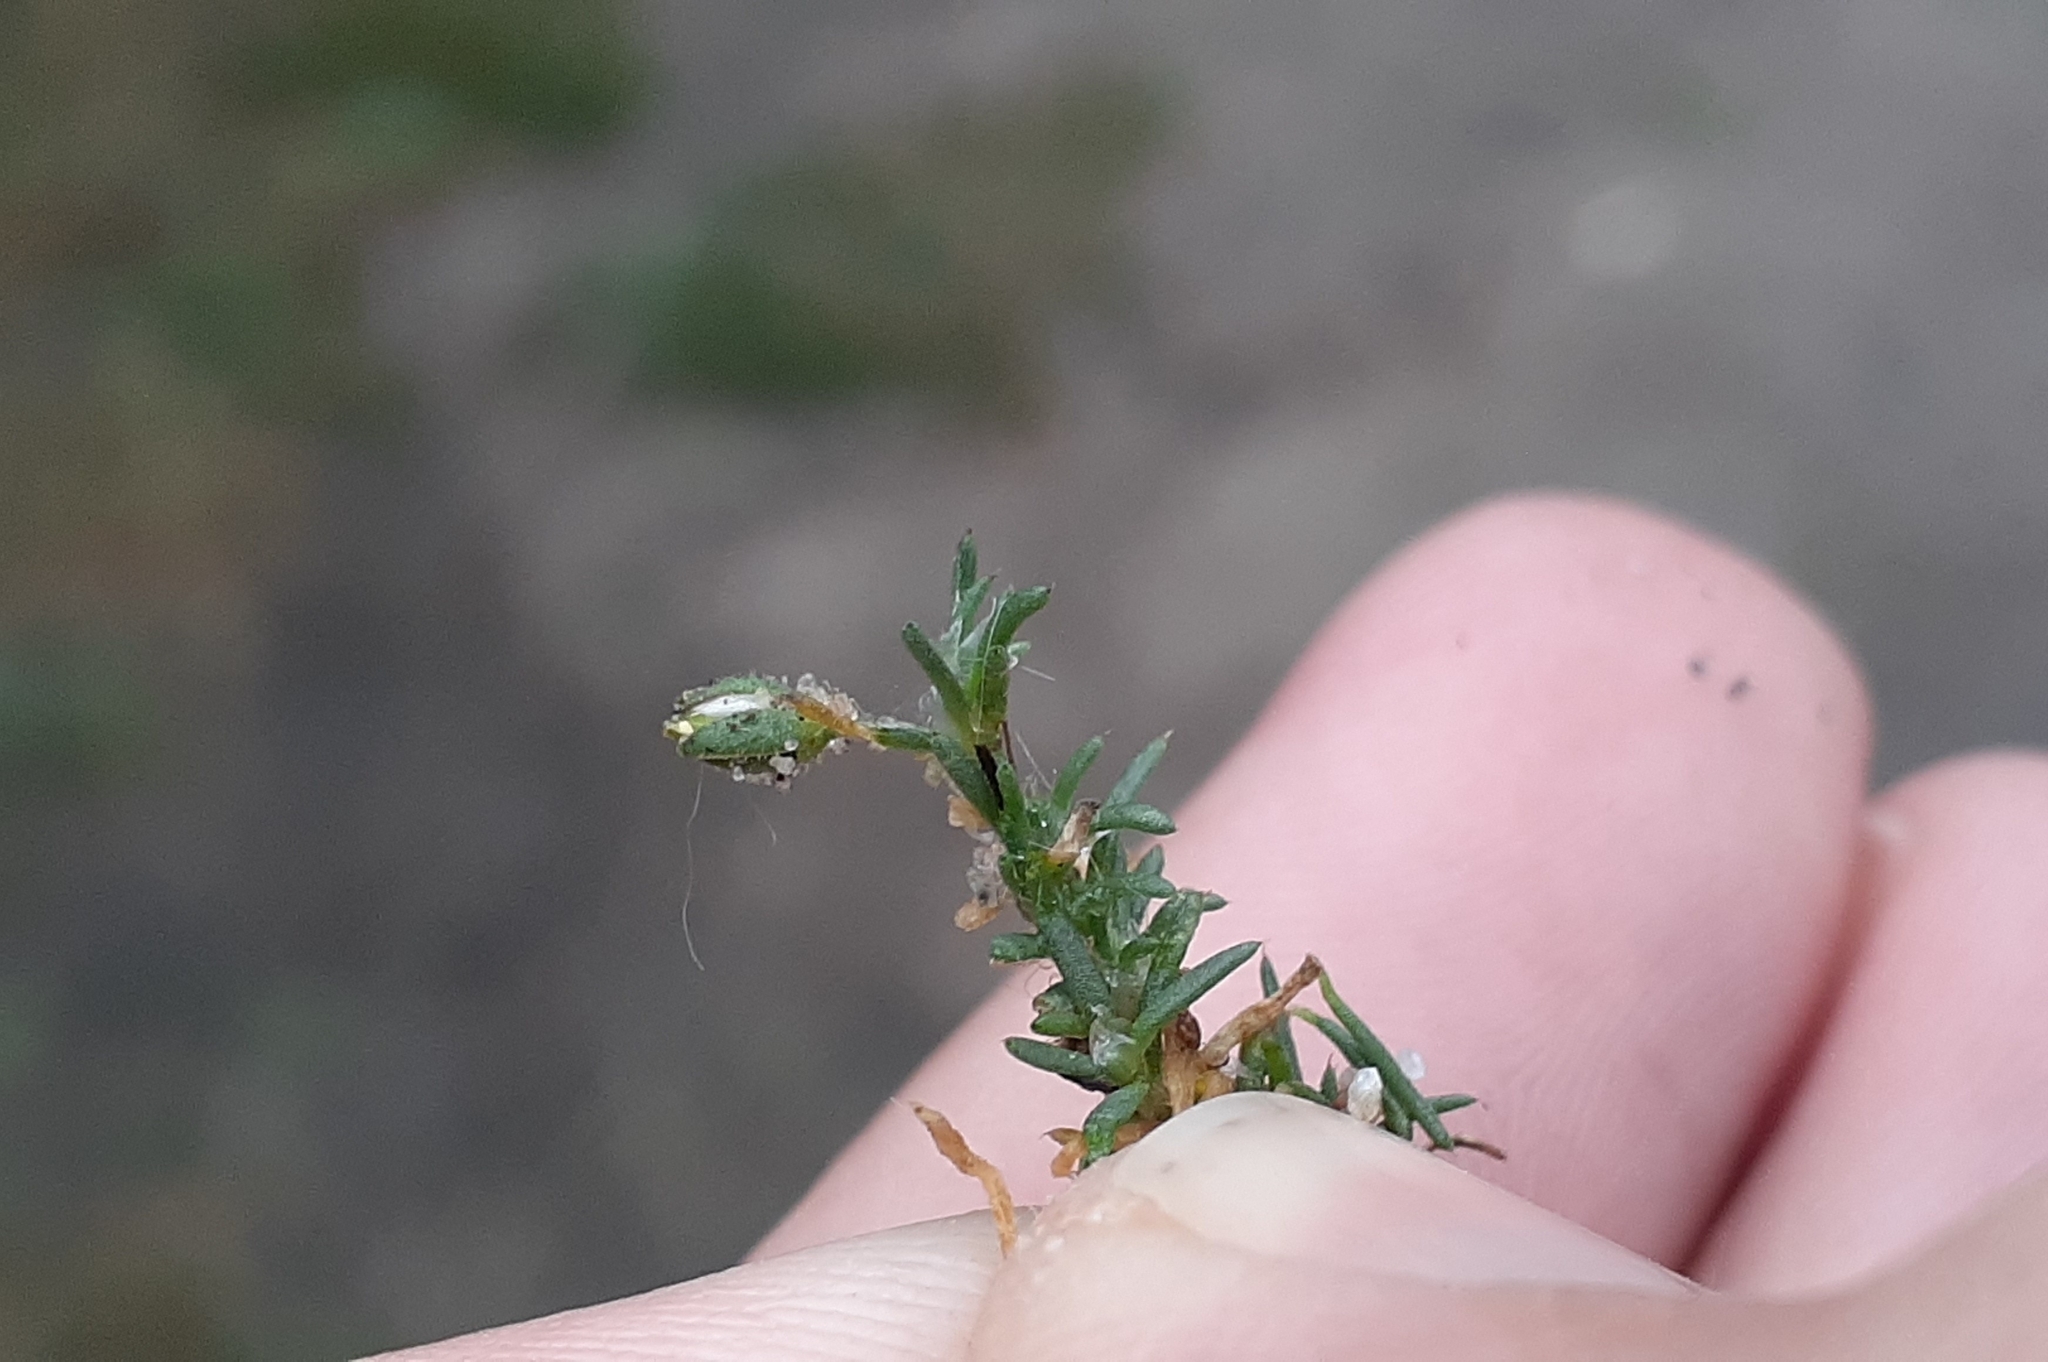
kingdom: Plantae
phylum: Tracheophyta
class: Magnoliopsida
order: Caryophyllales
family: Caryophyllaceae
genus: Spergularia
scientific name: Spergularia rubra
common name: Red sand-spurrey
